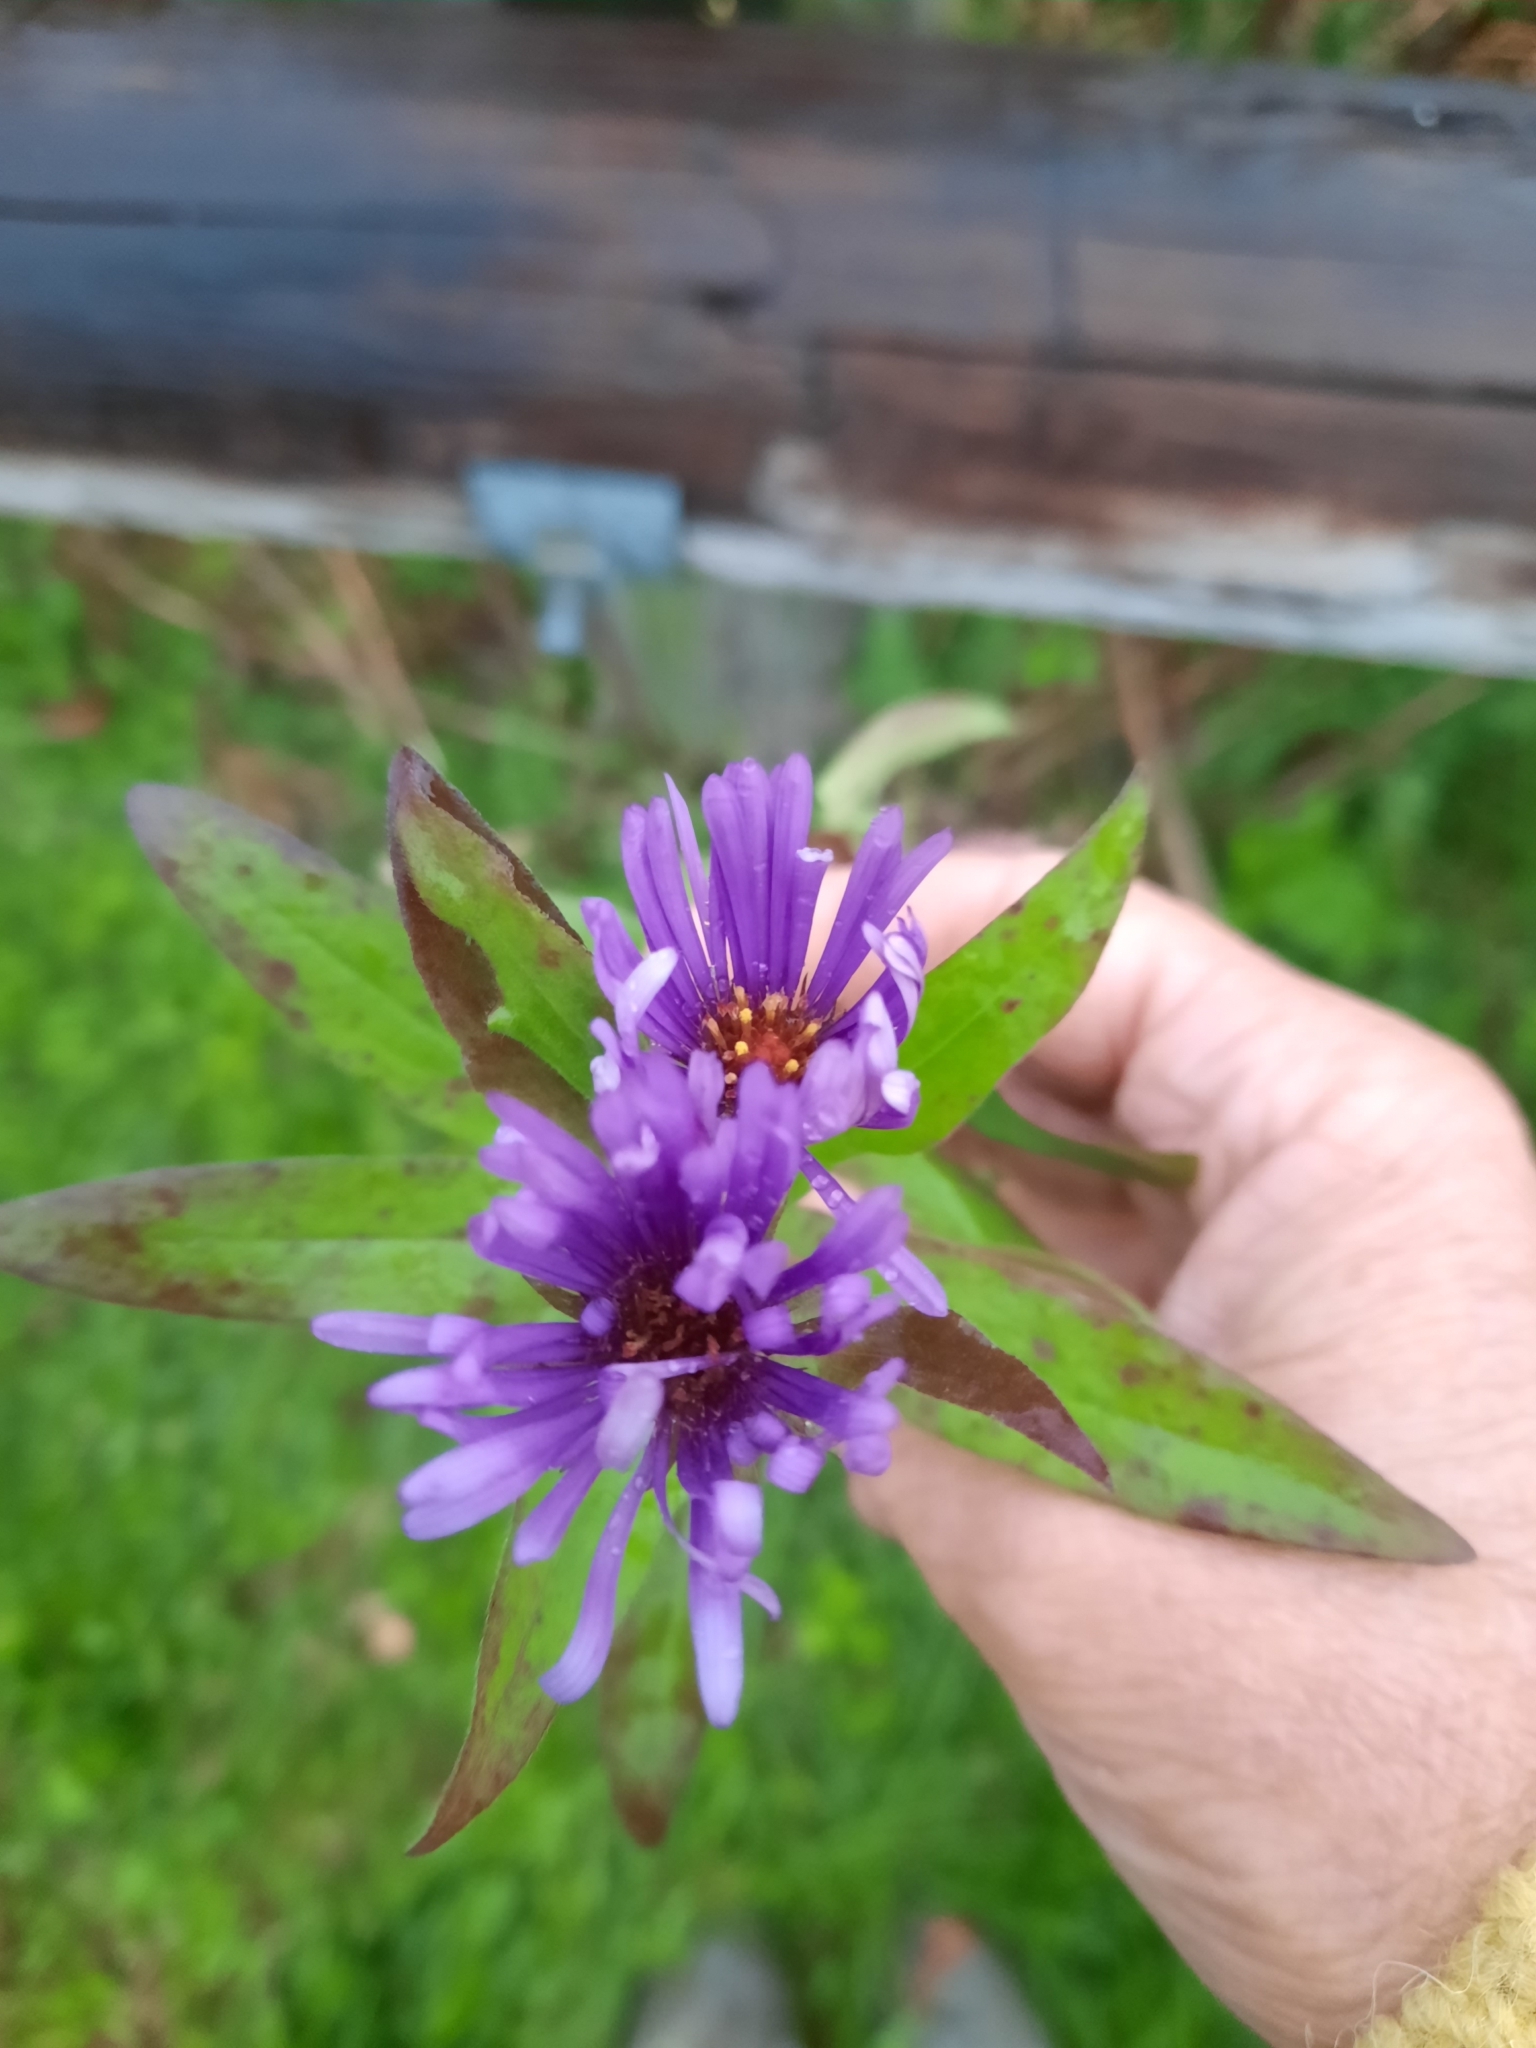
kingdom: Plantae
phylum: Tracheophyta
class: Magnoliopsida
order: Asterales
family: Asteraceae
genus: Symphyotrichum
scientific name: Symphyotrichum novae-angliae
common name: Michaelmas daisy
